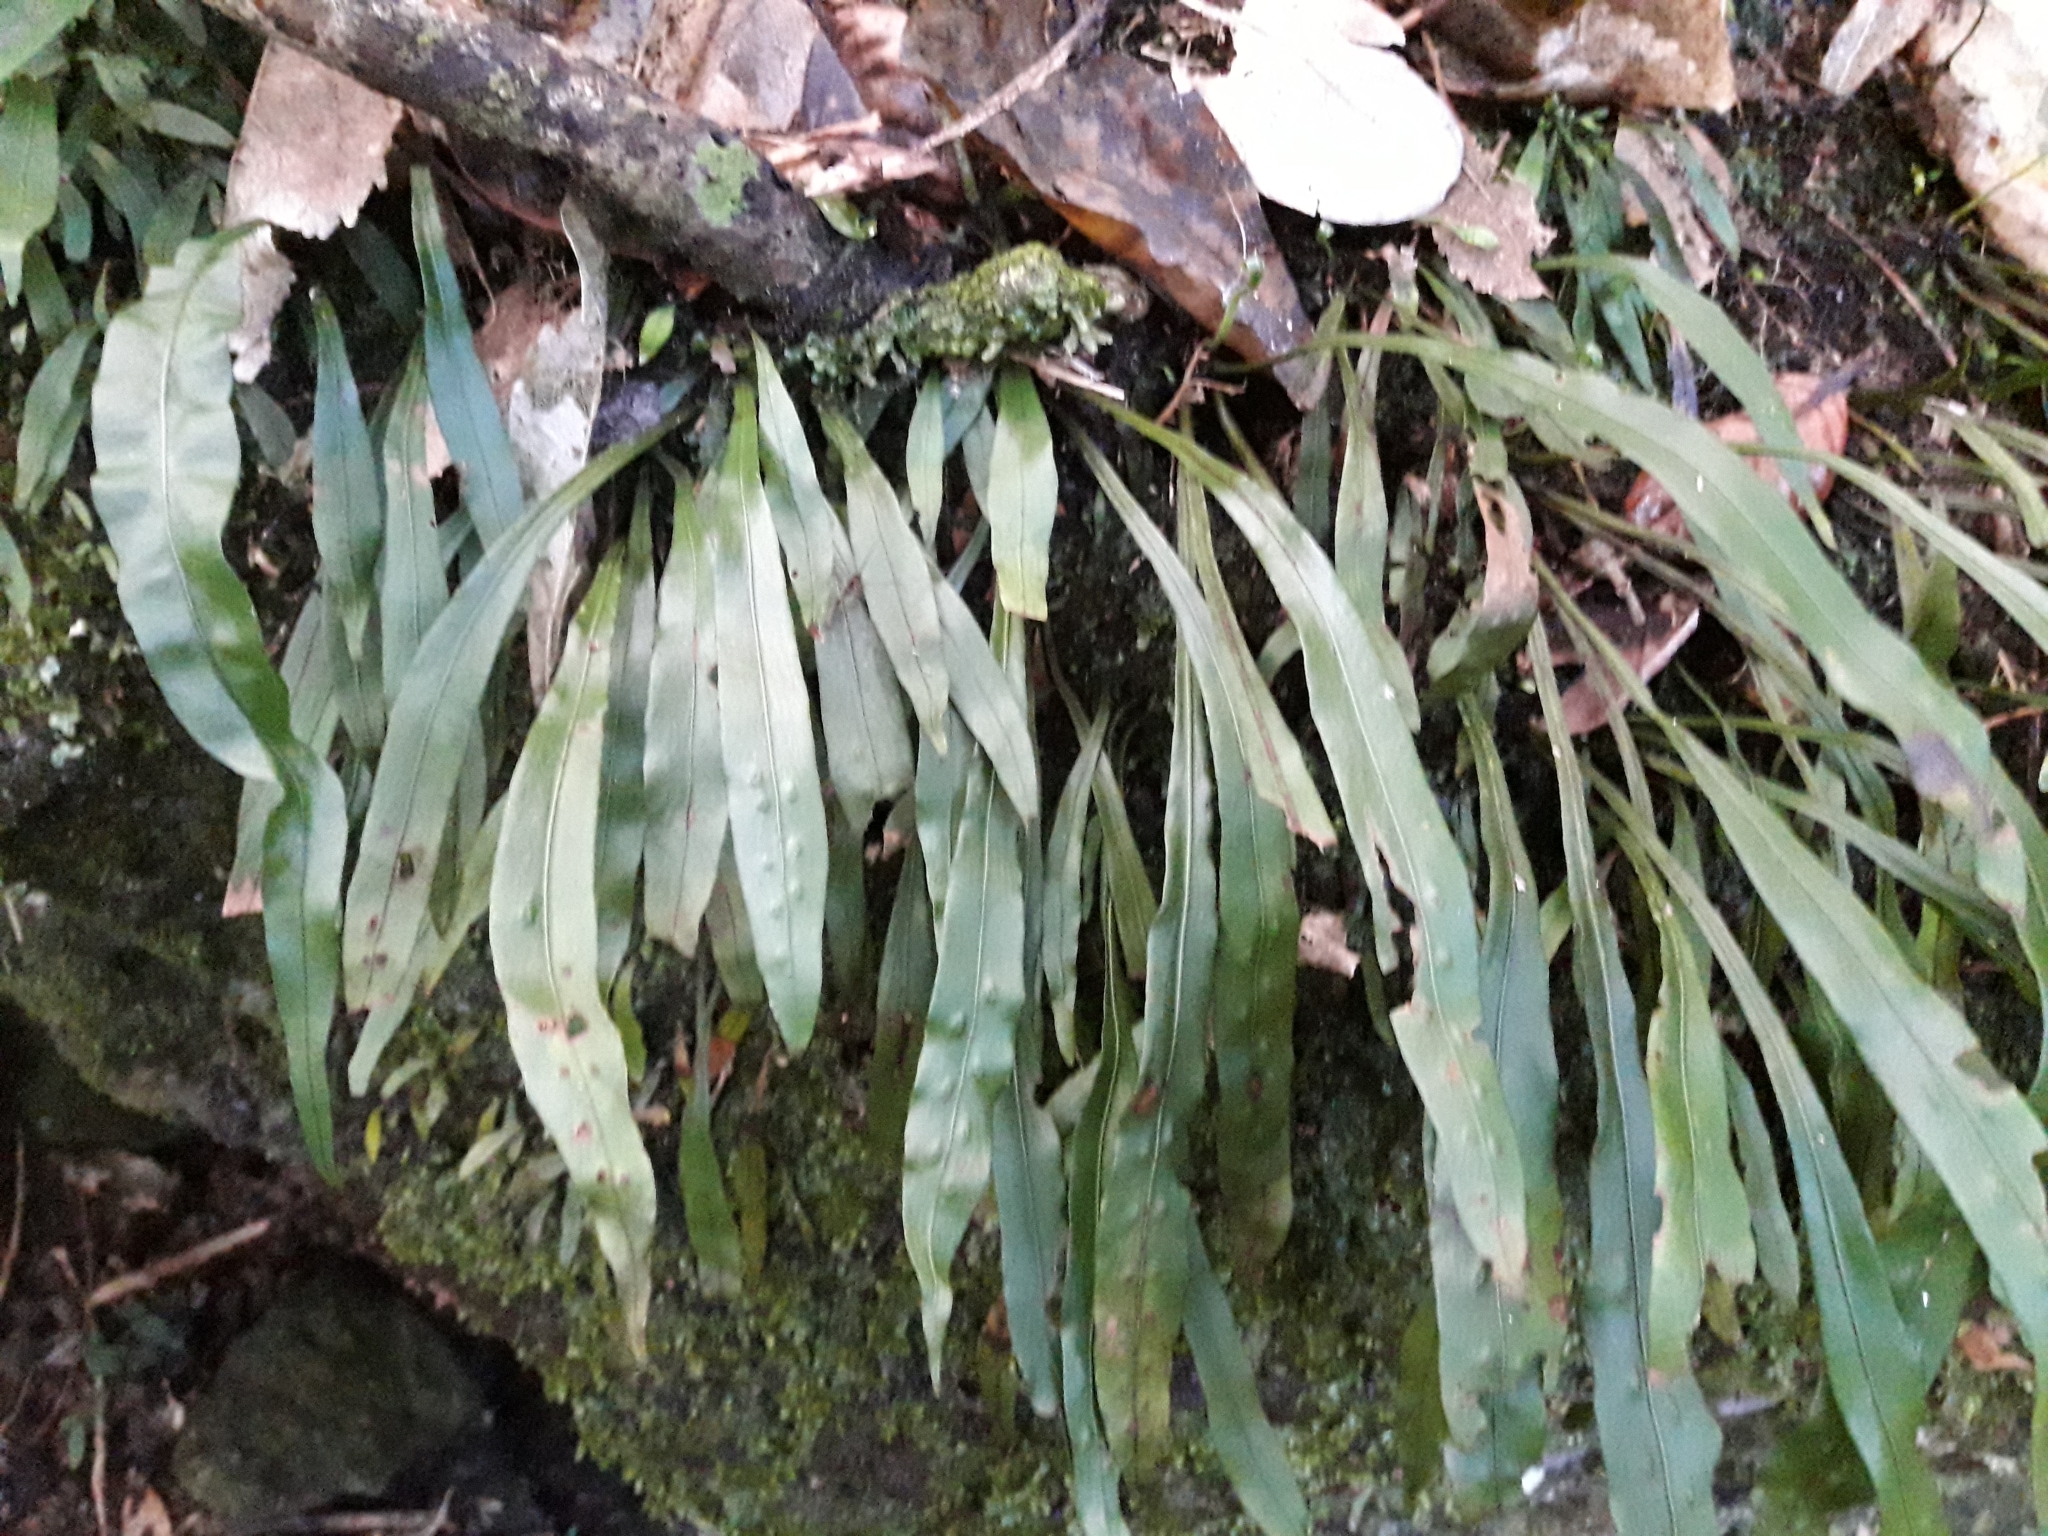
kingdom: Plantae
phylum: Tracheophyta
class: Polypodiopsida
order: Polypodiales
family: Polypodiaceae
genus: Loxogramme
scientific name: Loxogramme dictyopteris
